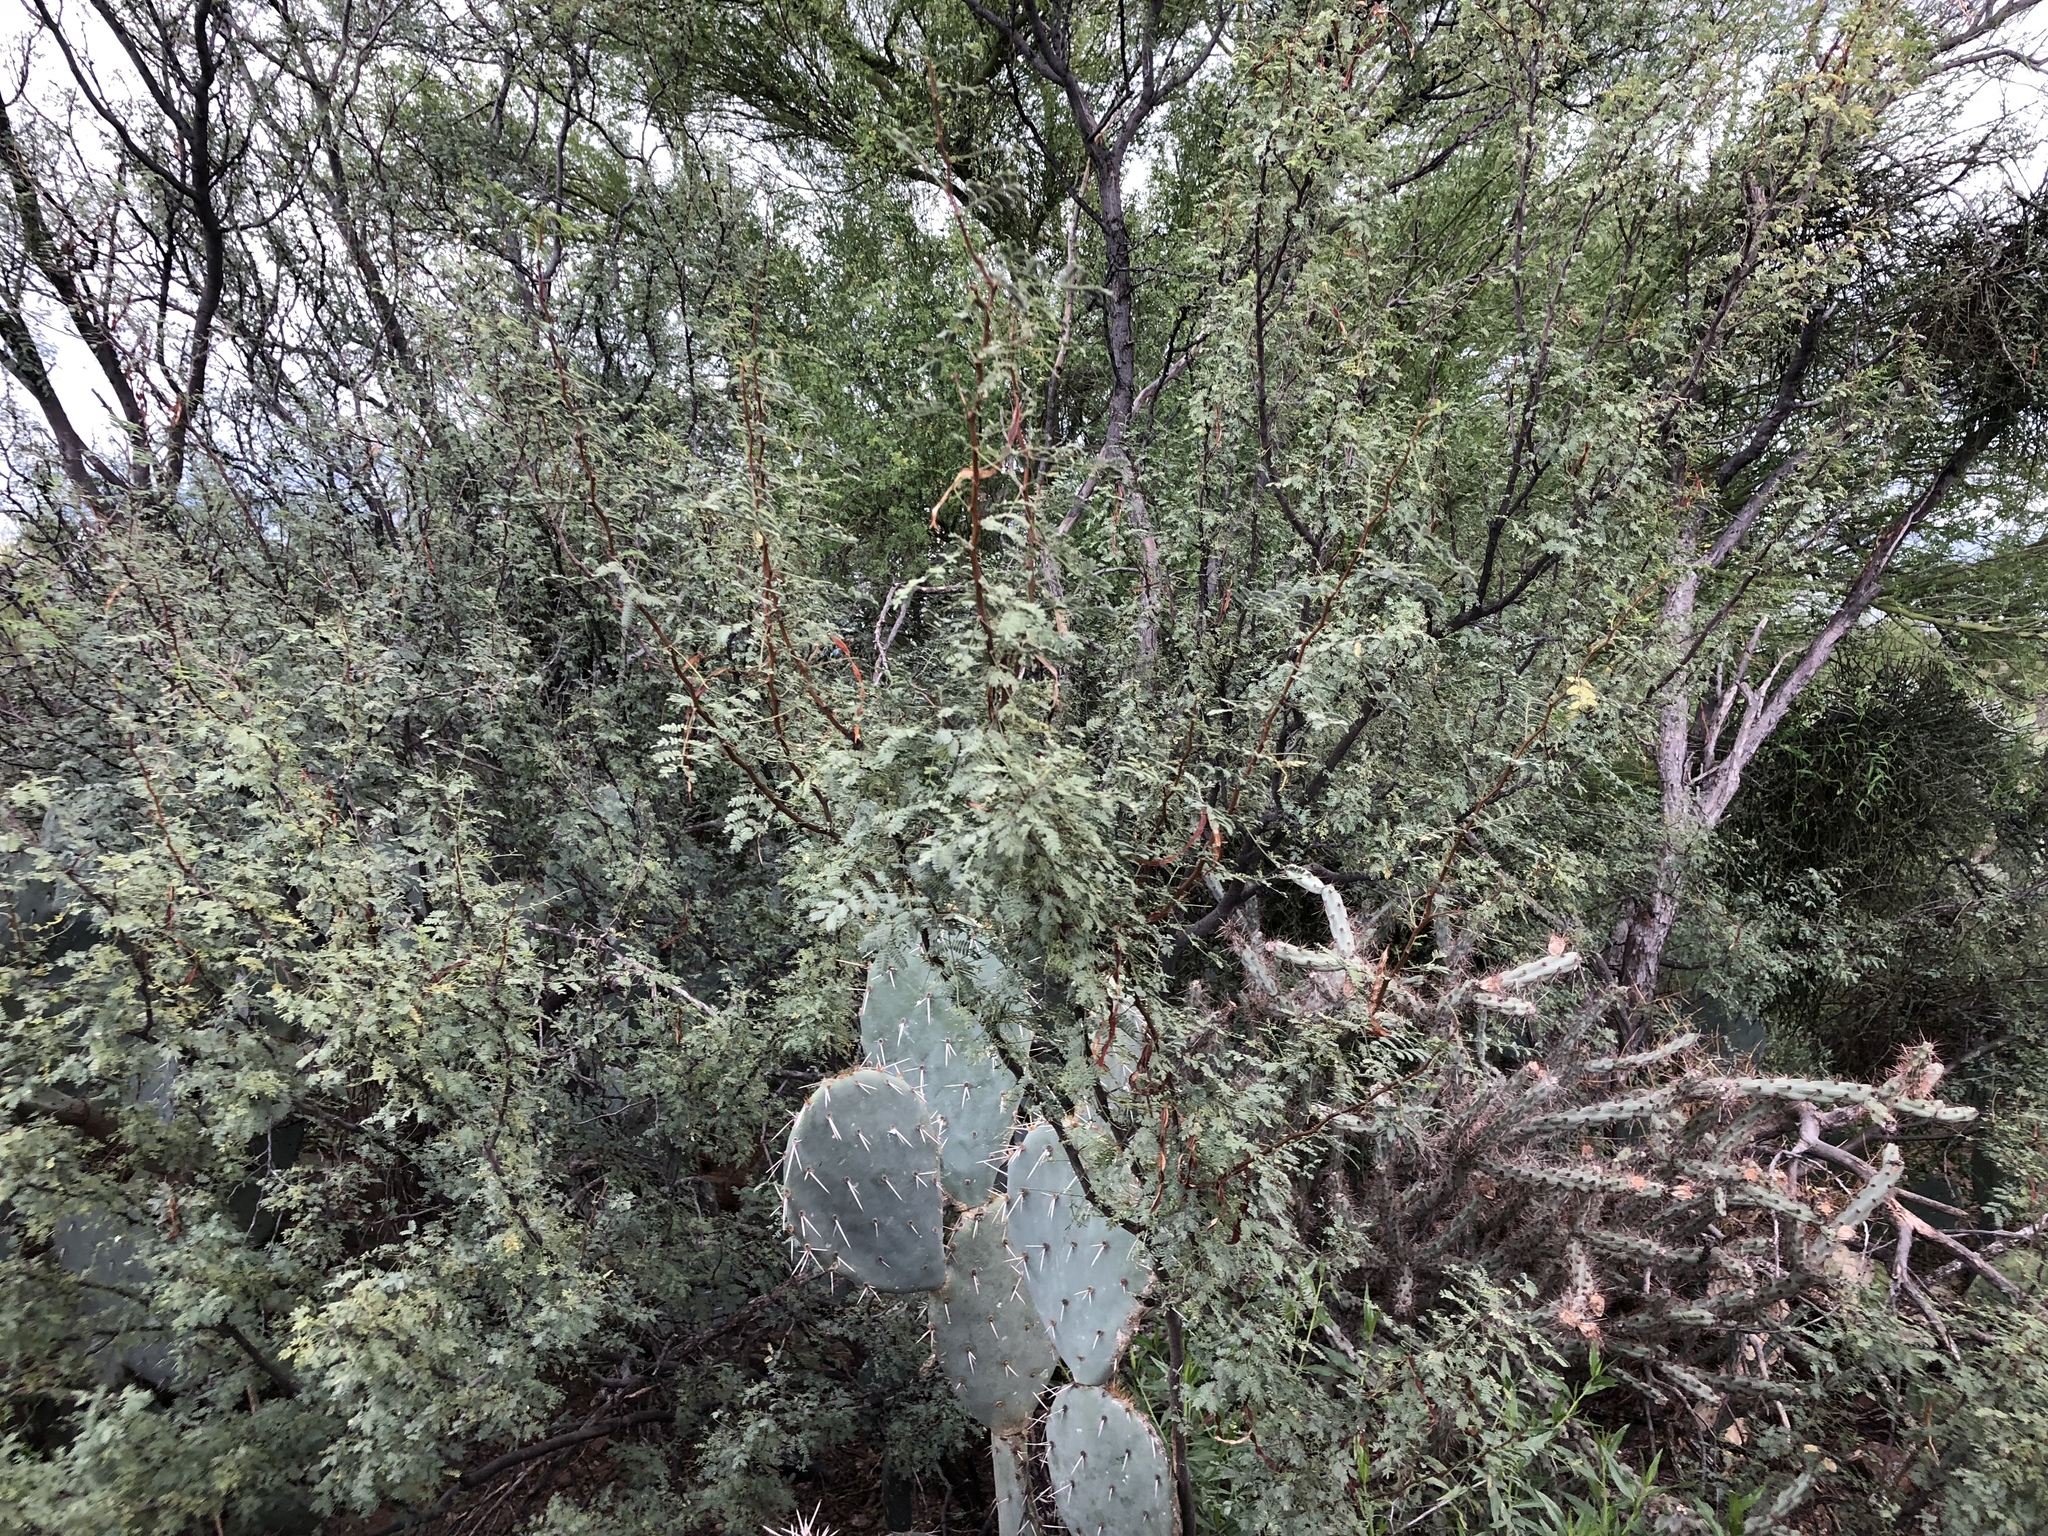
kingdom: Plantae
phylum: Tracheophyta
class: Magnoliopsida
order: Fabales
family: Fabaceae
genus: Vachellia
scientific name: Vachellia constricta
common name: Mescat acacia
